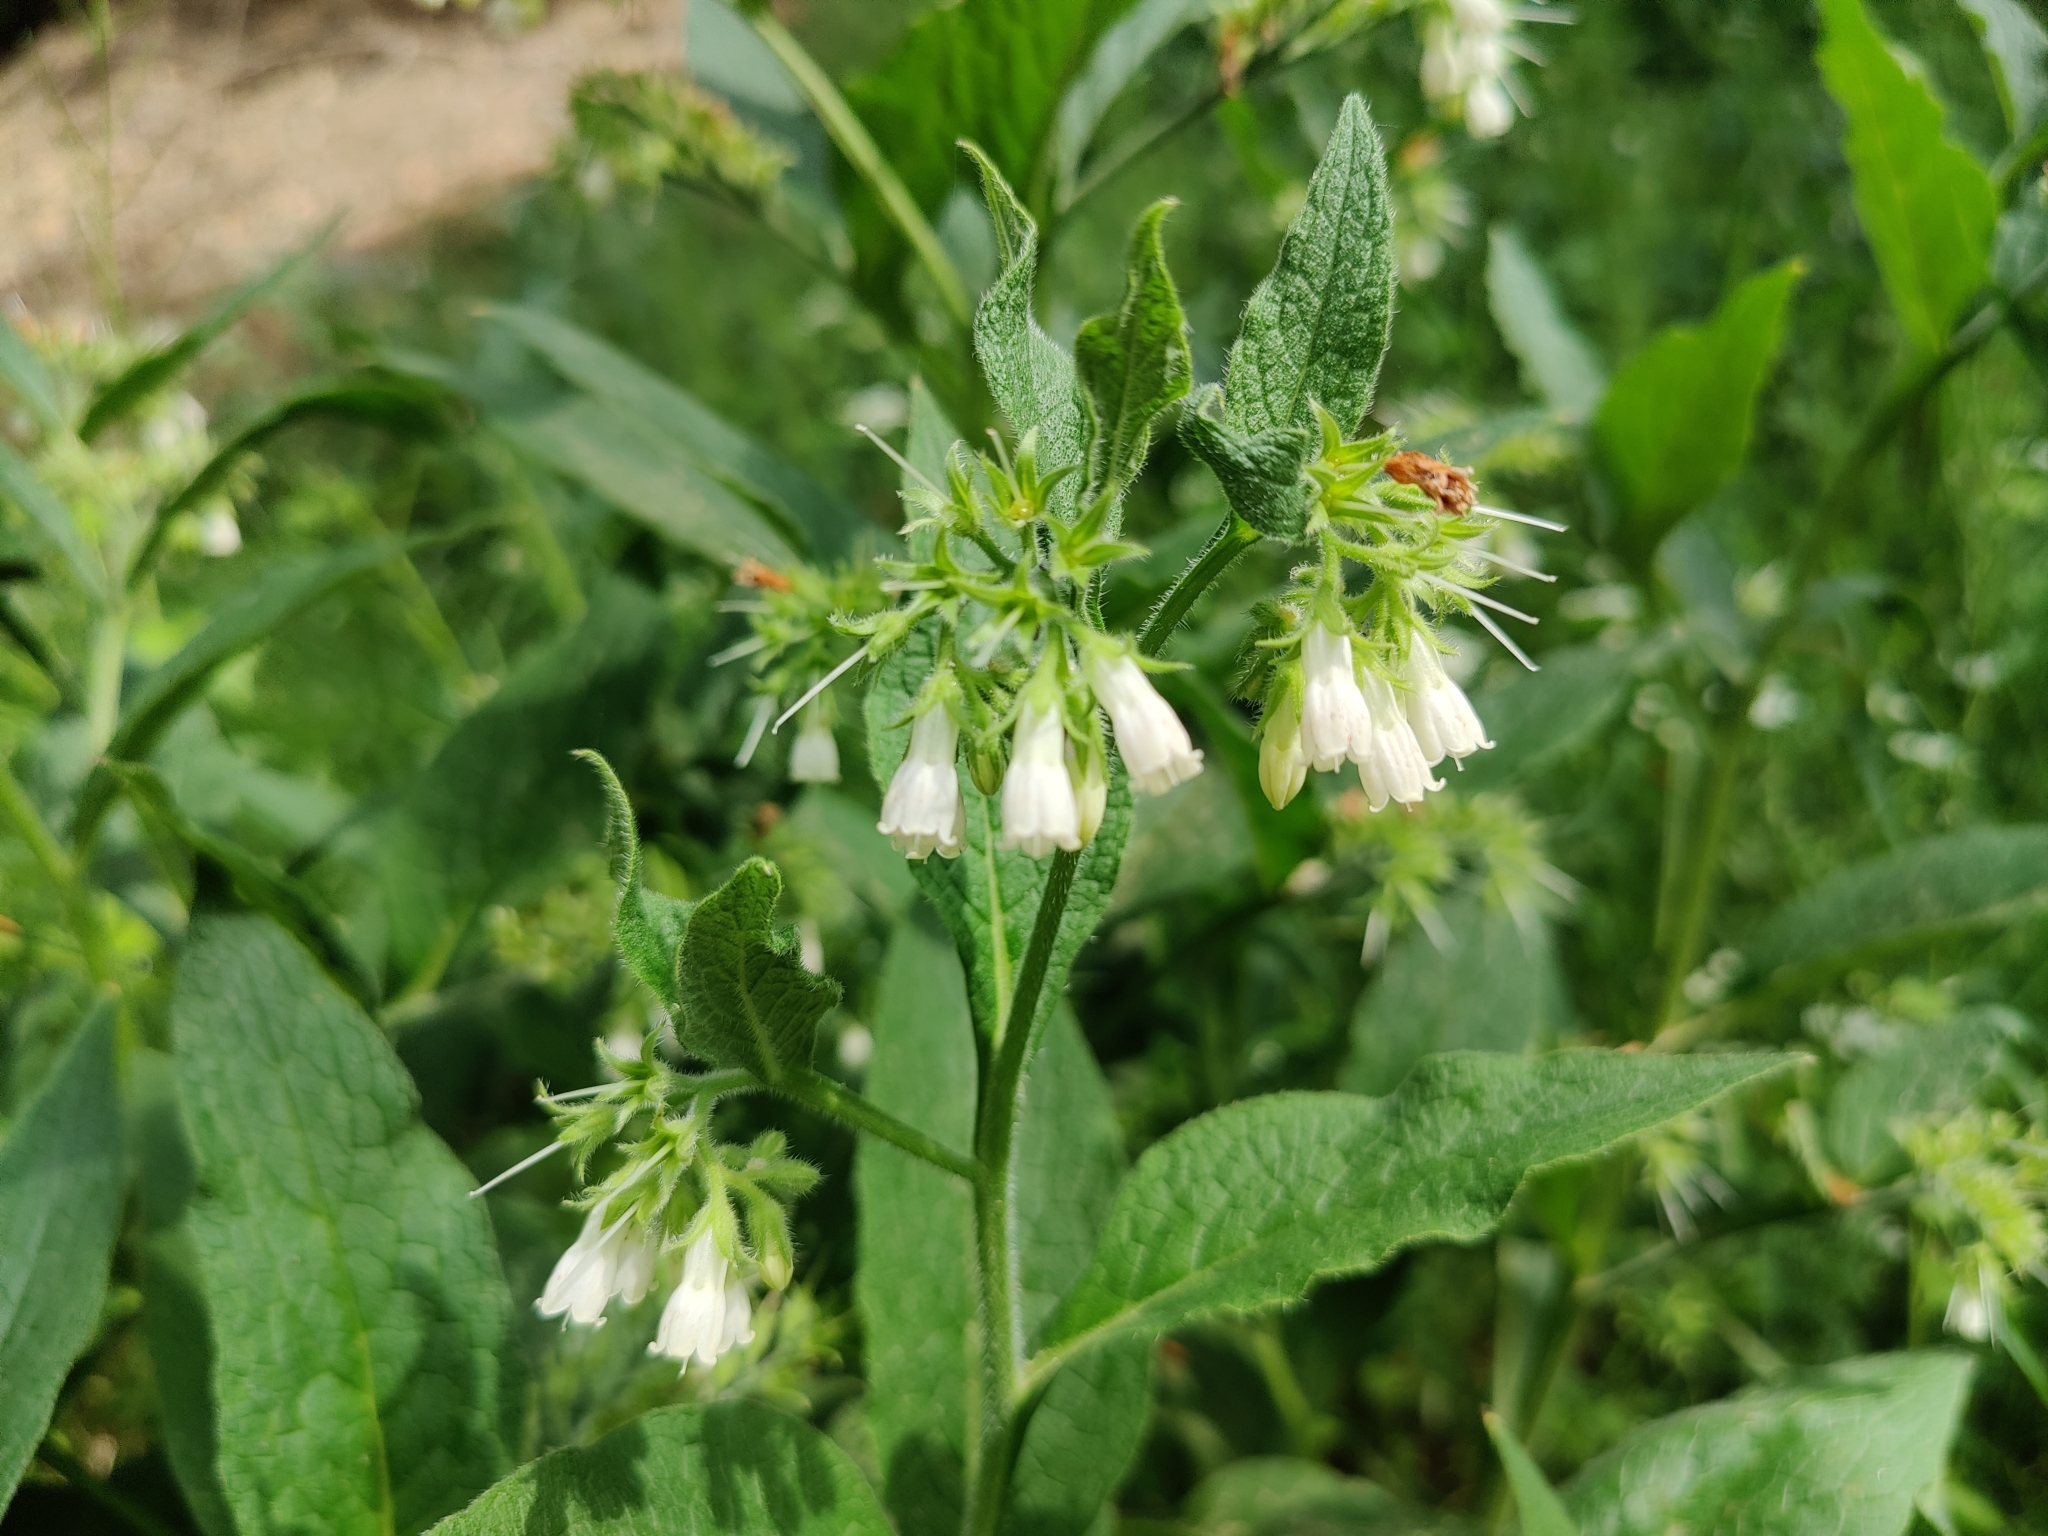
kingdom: Plantae
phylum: Tracheophyta
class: Magnoliopsida
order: Boraginales
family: Boraginaceae
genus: Symphytum
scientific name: Symphytum officinale
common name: Common comfrey
